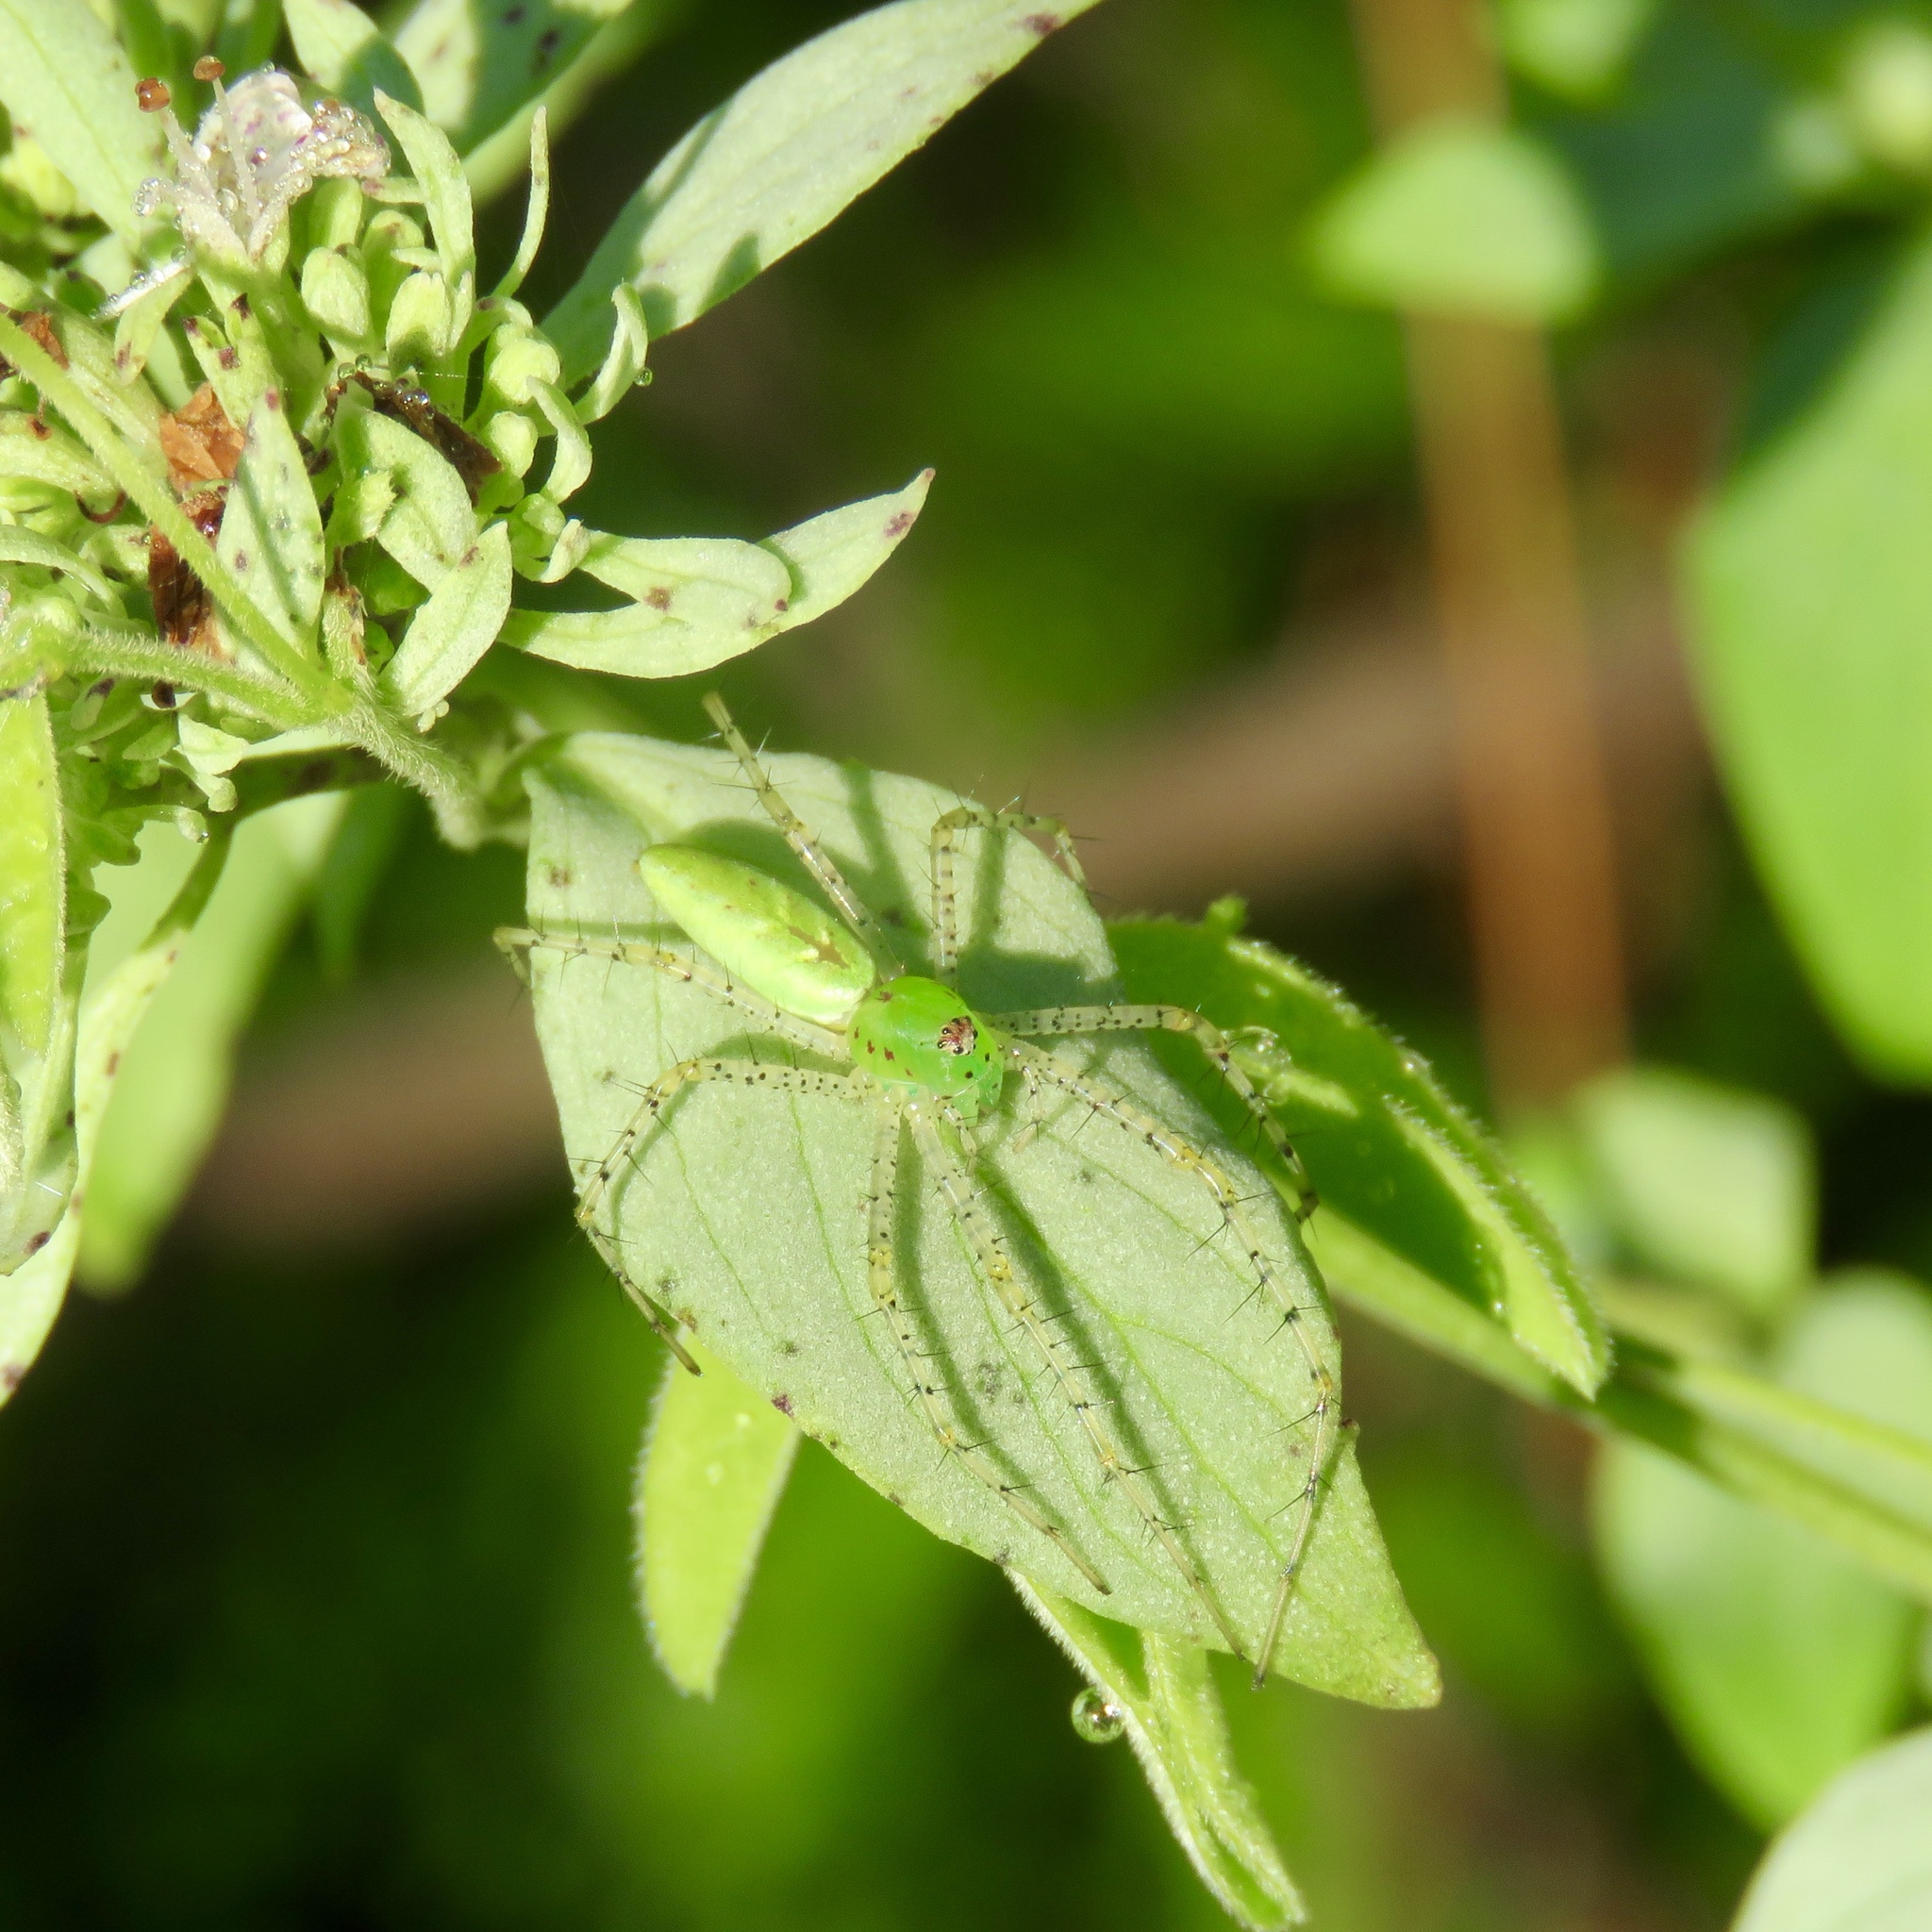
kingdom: Animalia
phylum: Arthropoda
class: Arachnida
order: Araneae
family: Oxyopidae
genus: Peucetia
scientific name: Peucetia viridans
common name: Lynx spiders
